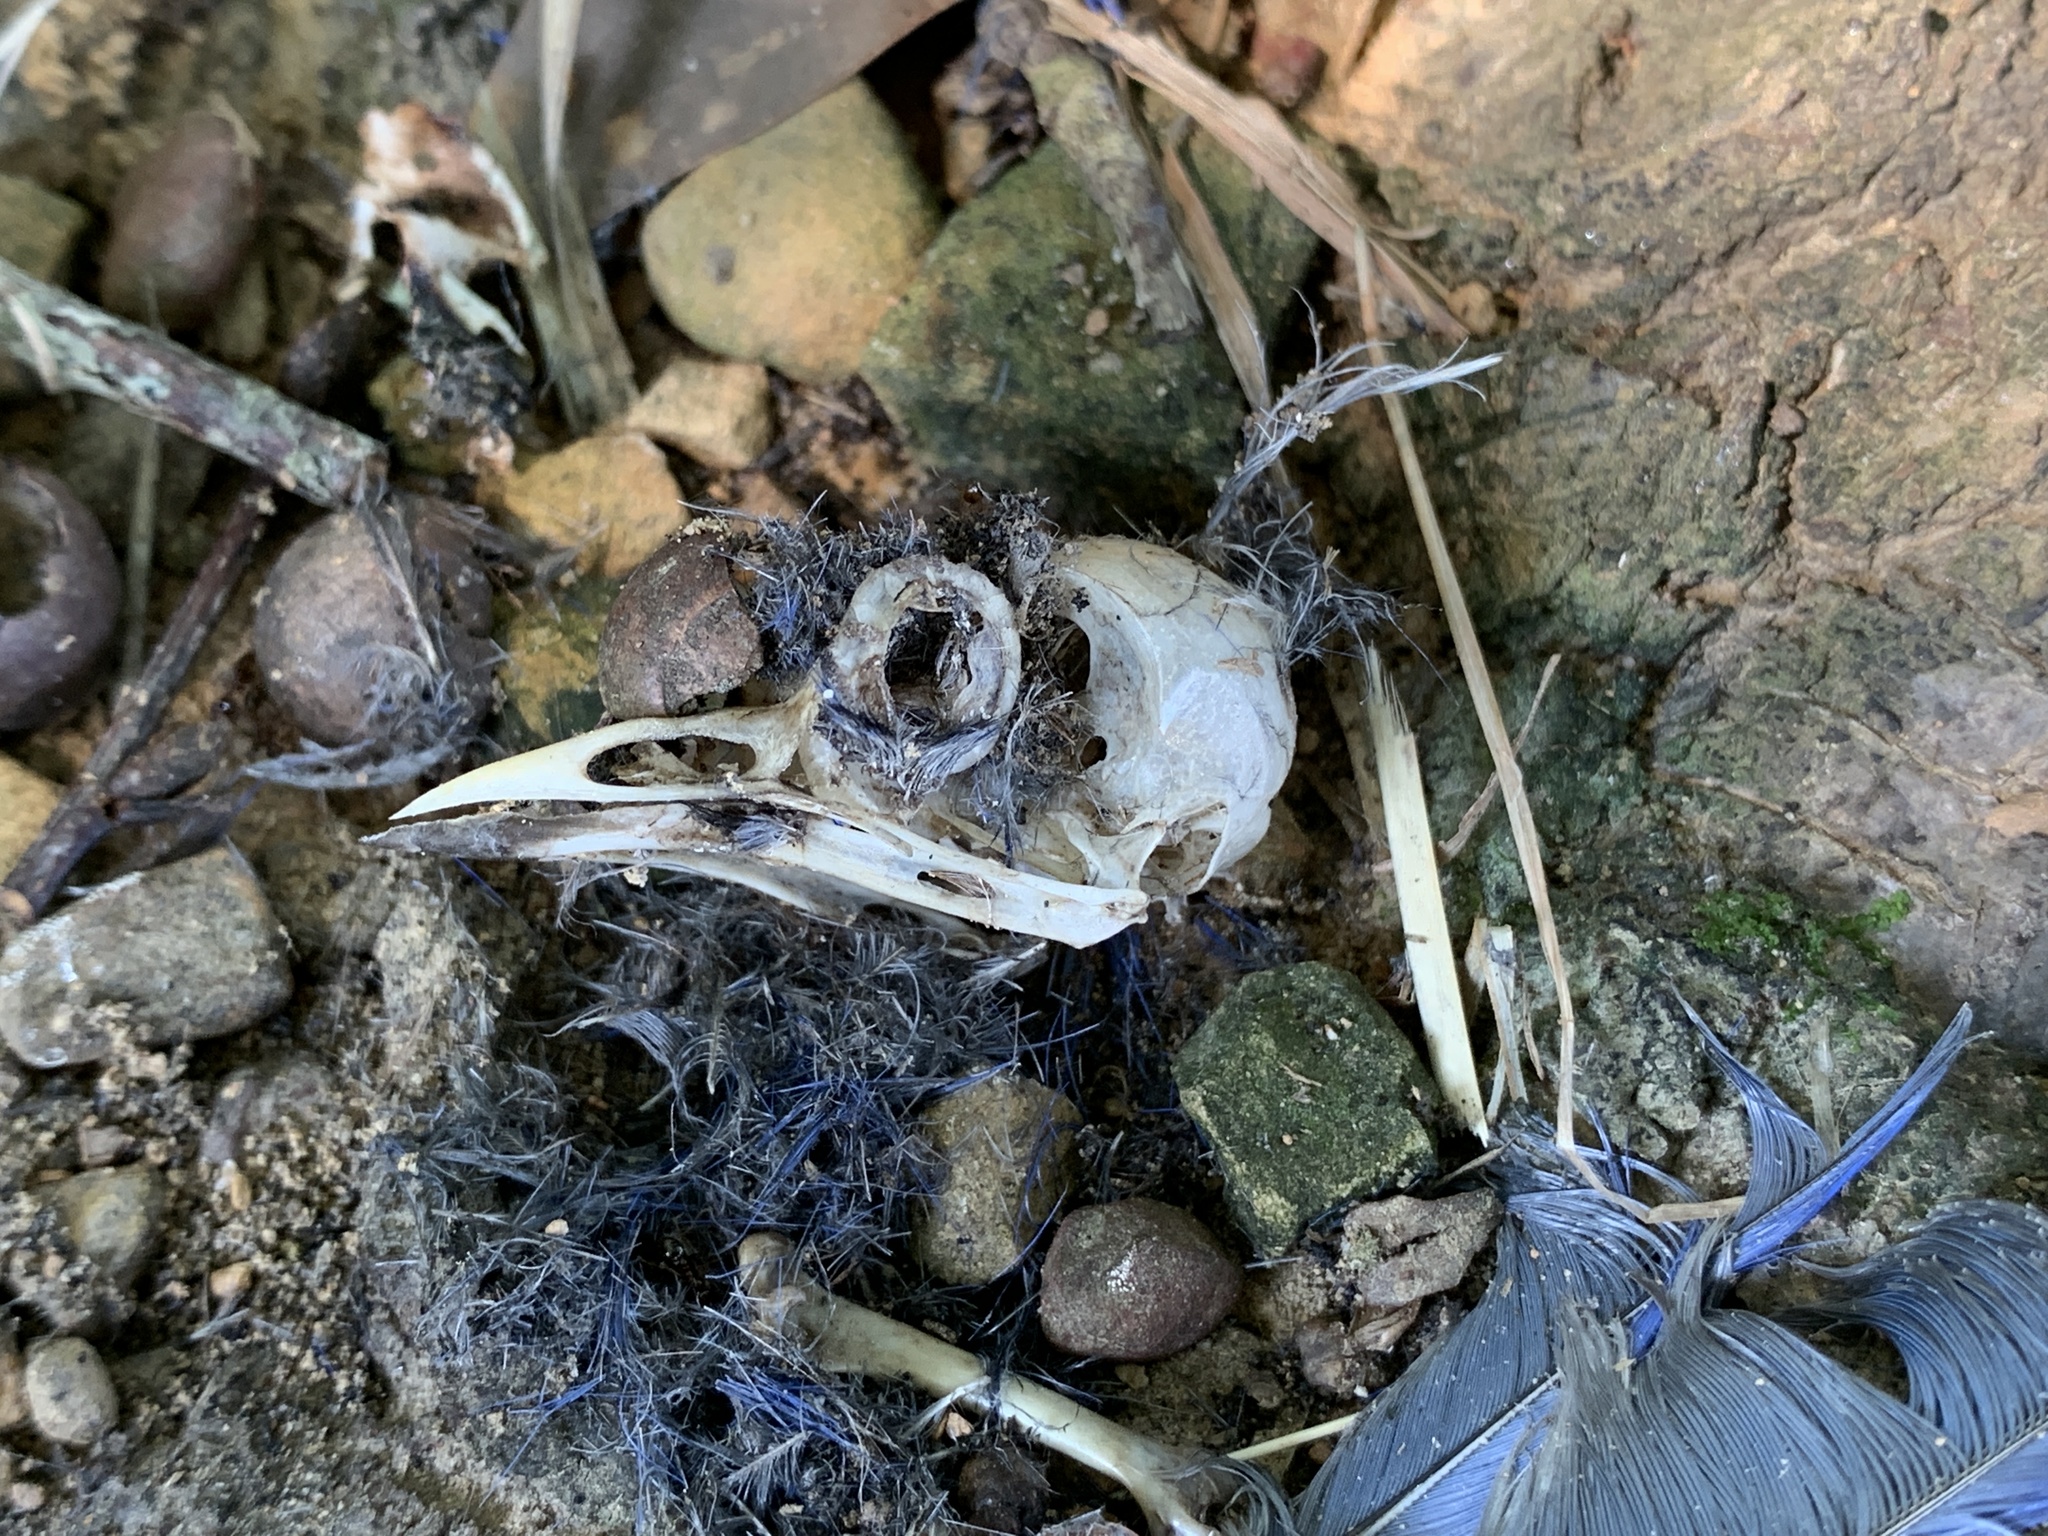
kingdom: Animalia
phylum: Chordata
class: Aves
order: Passeriformes
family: Turdidae
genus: Sialia
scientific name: Sialia sialis
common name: Eastern bluebird
